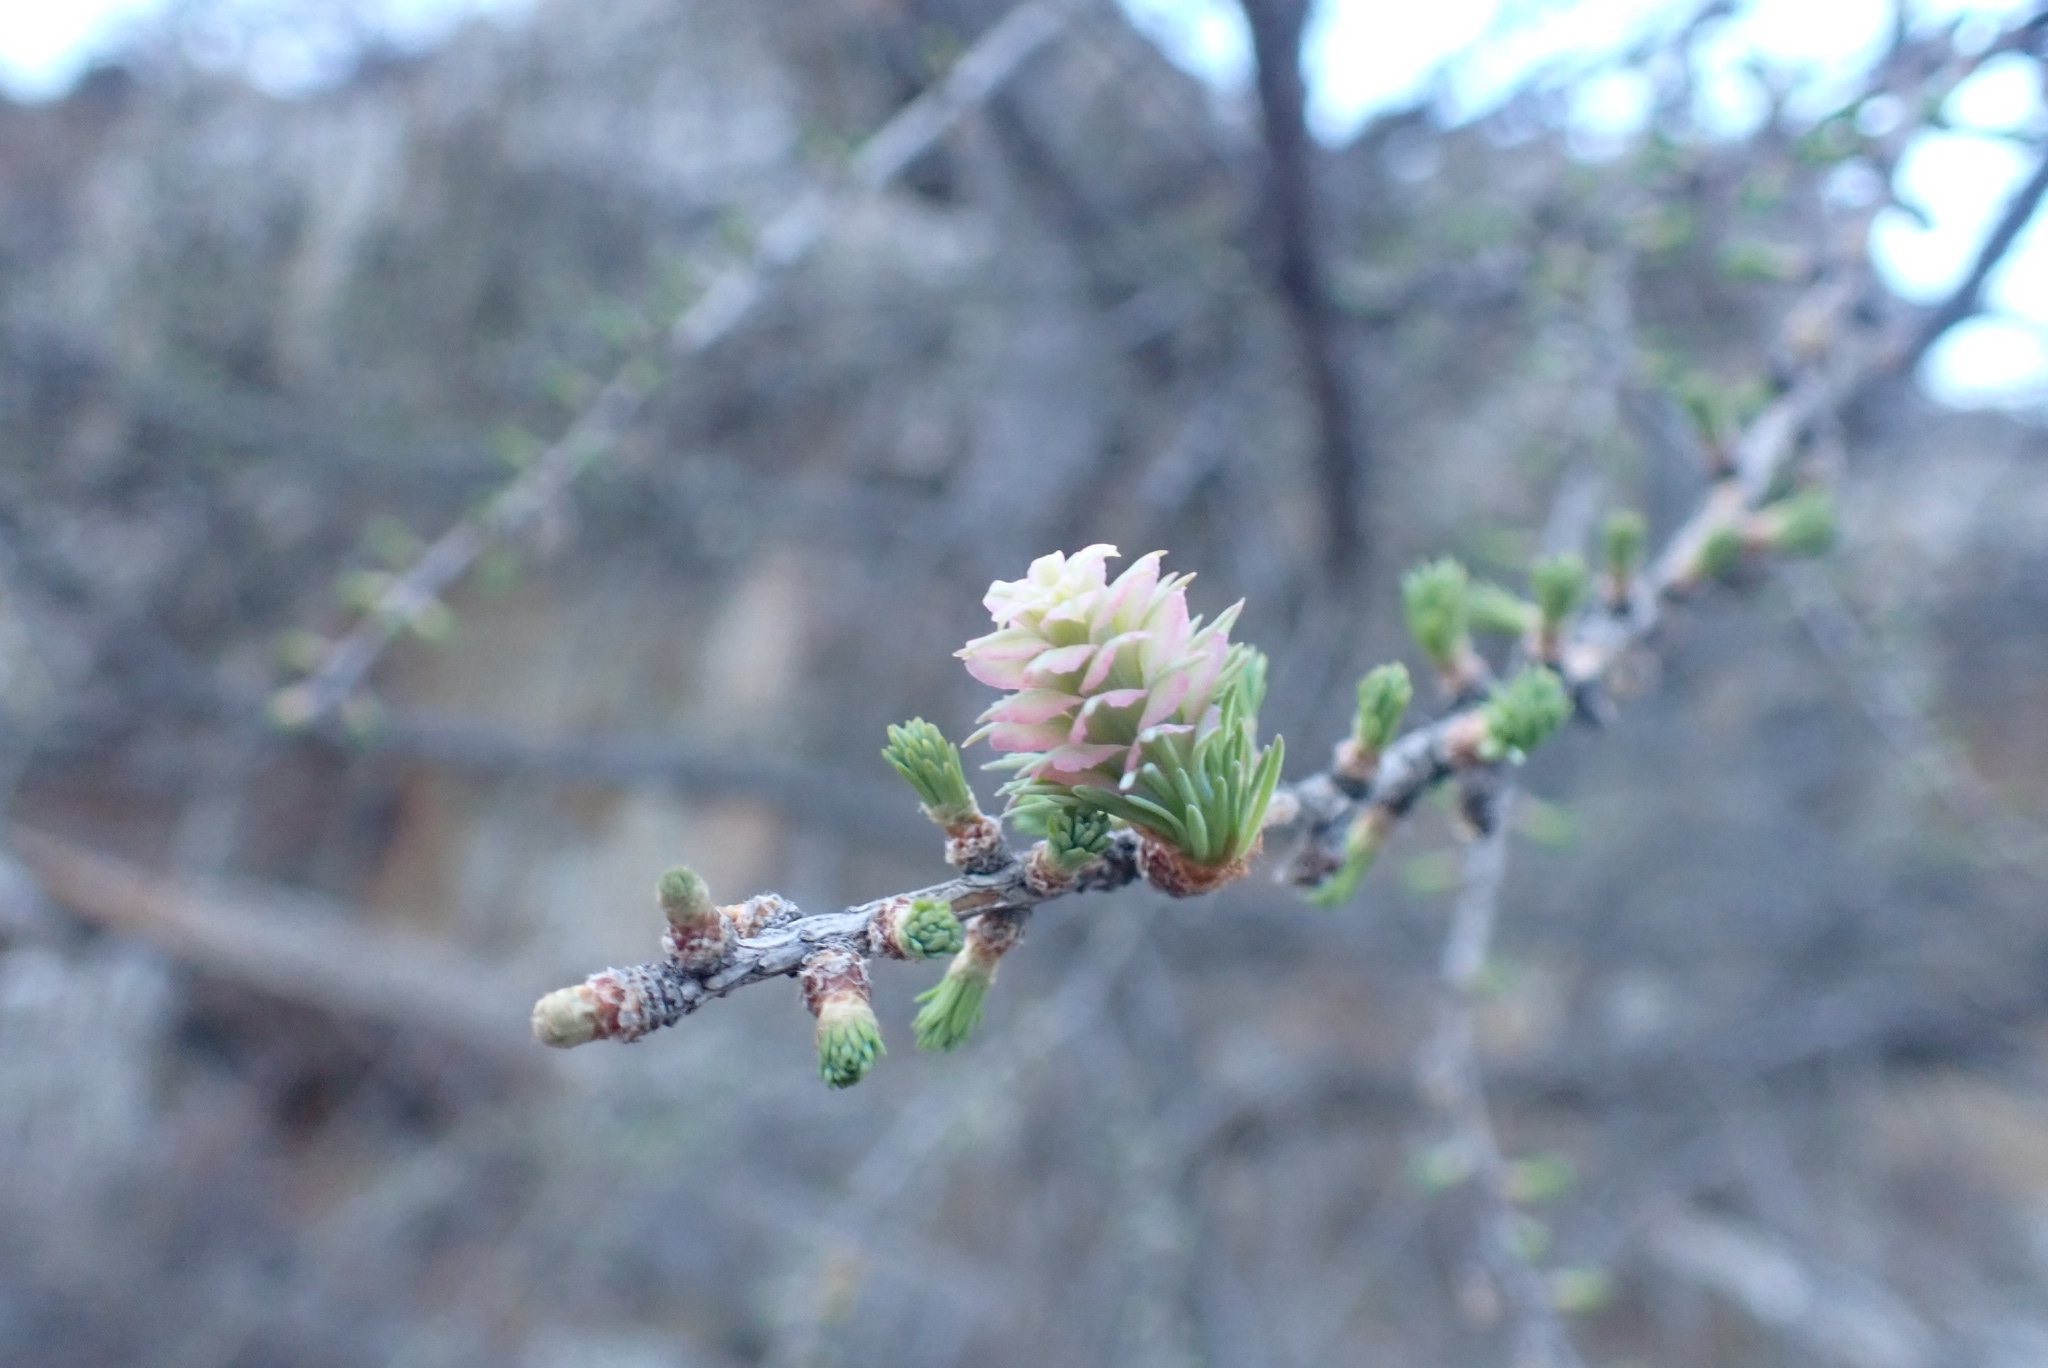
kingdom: Plantae
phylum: Tracheophyta
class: Pinopsida
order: Pinales
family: Pinaceae
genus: Larix
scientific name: Larix sibirica
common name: Siberian larch
